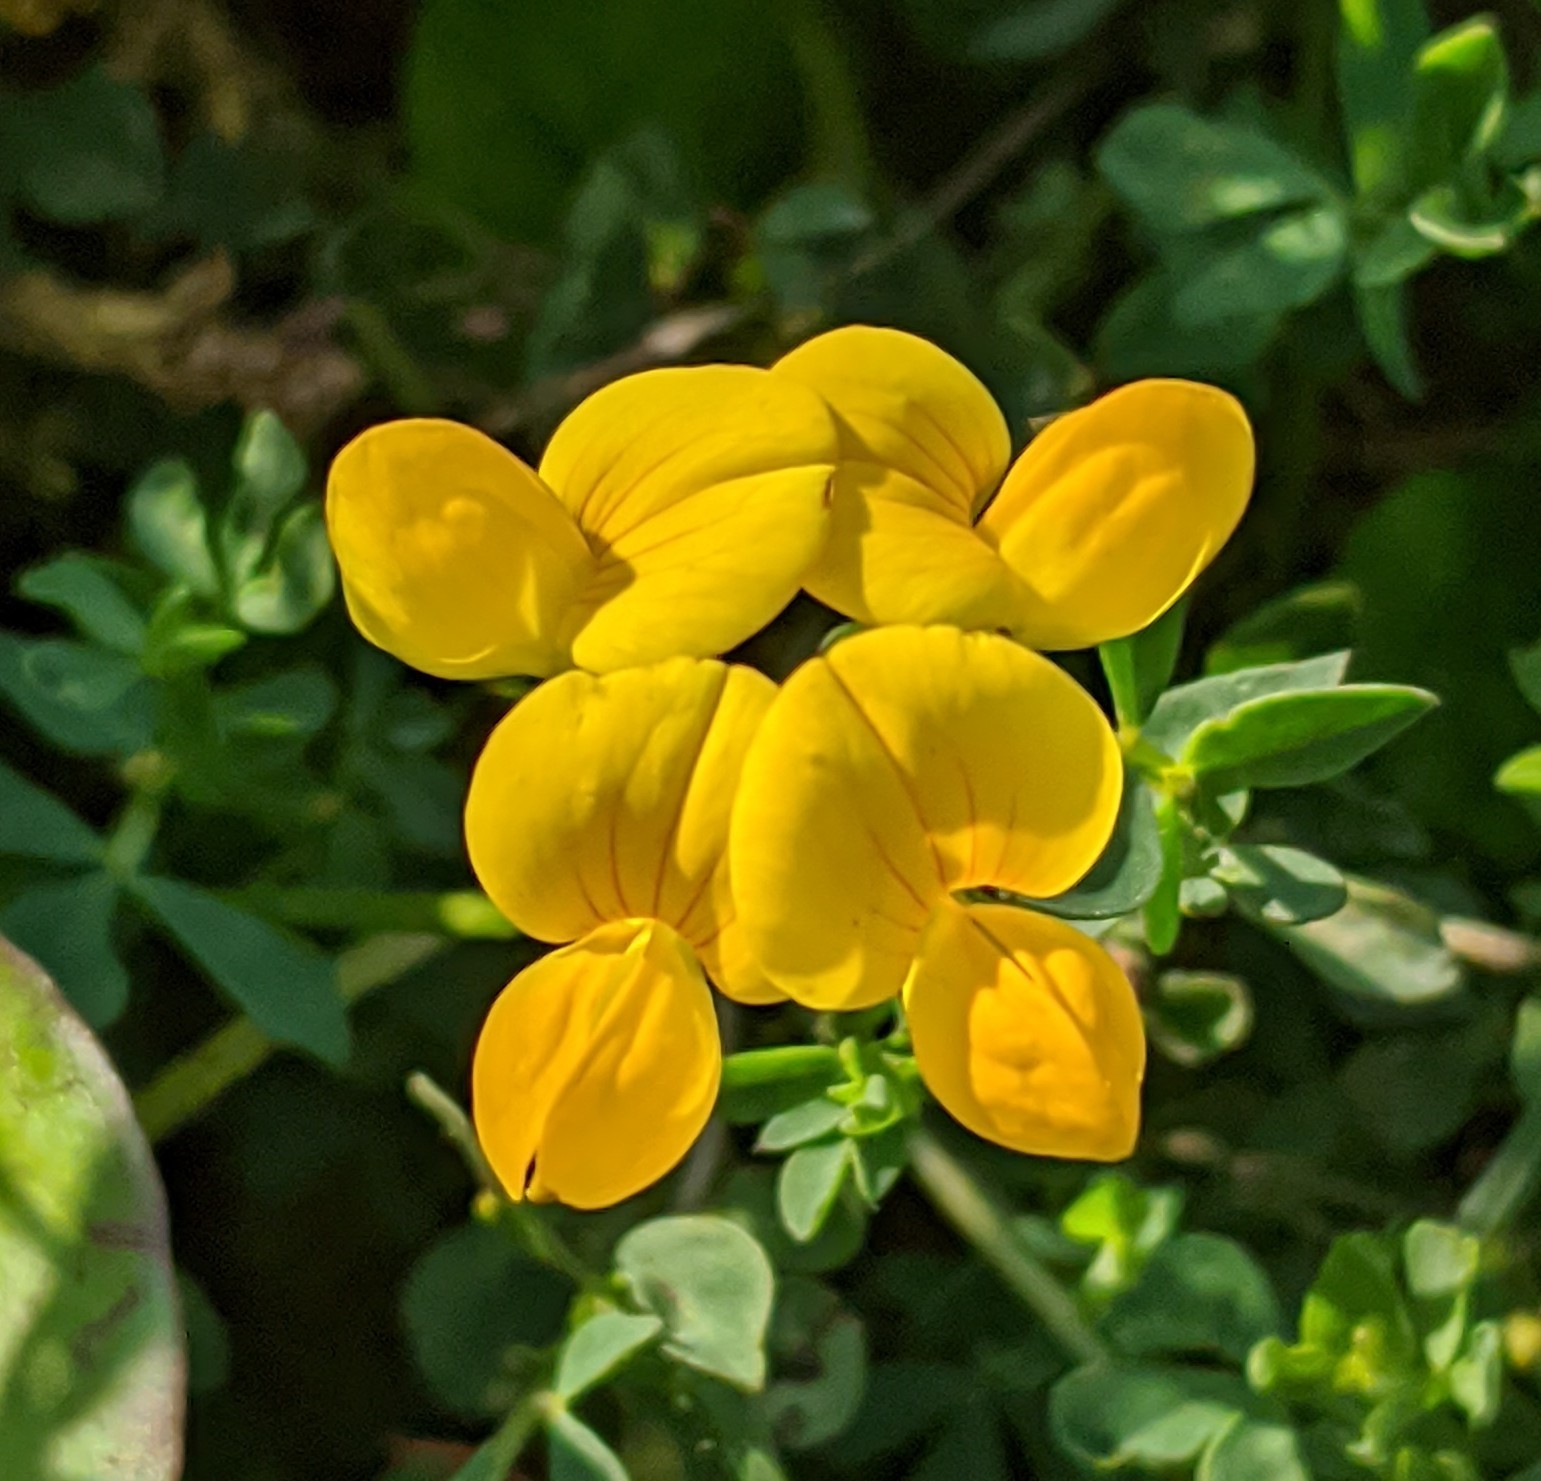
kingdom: Plantae
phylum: Tracheophyta
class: Magnoliopsida
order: Fabales
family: Fabaceae
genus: Lotus
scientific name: Lotus corniculatus
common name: Common bird's-foot-trefoil
